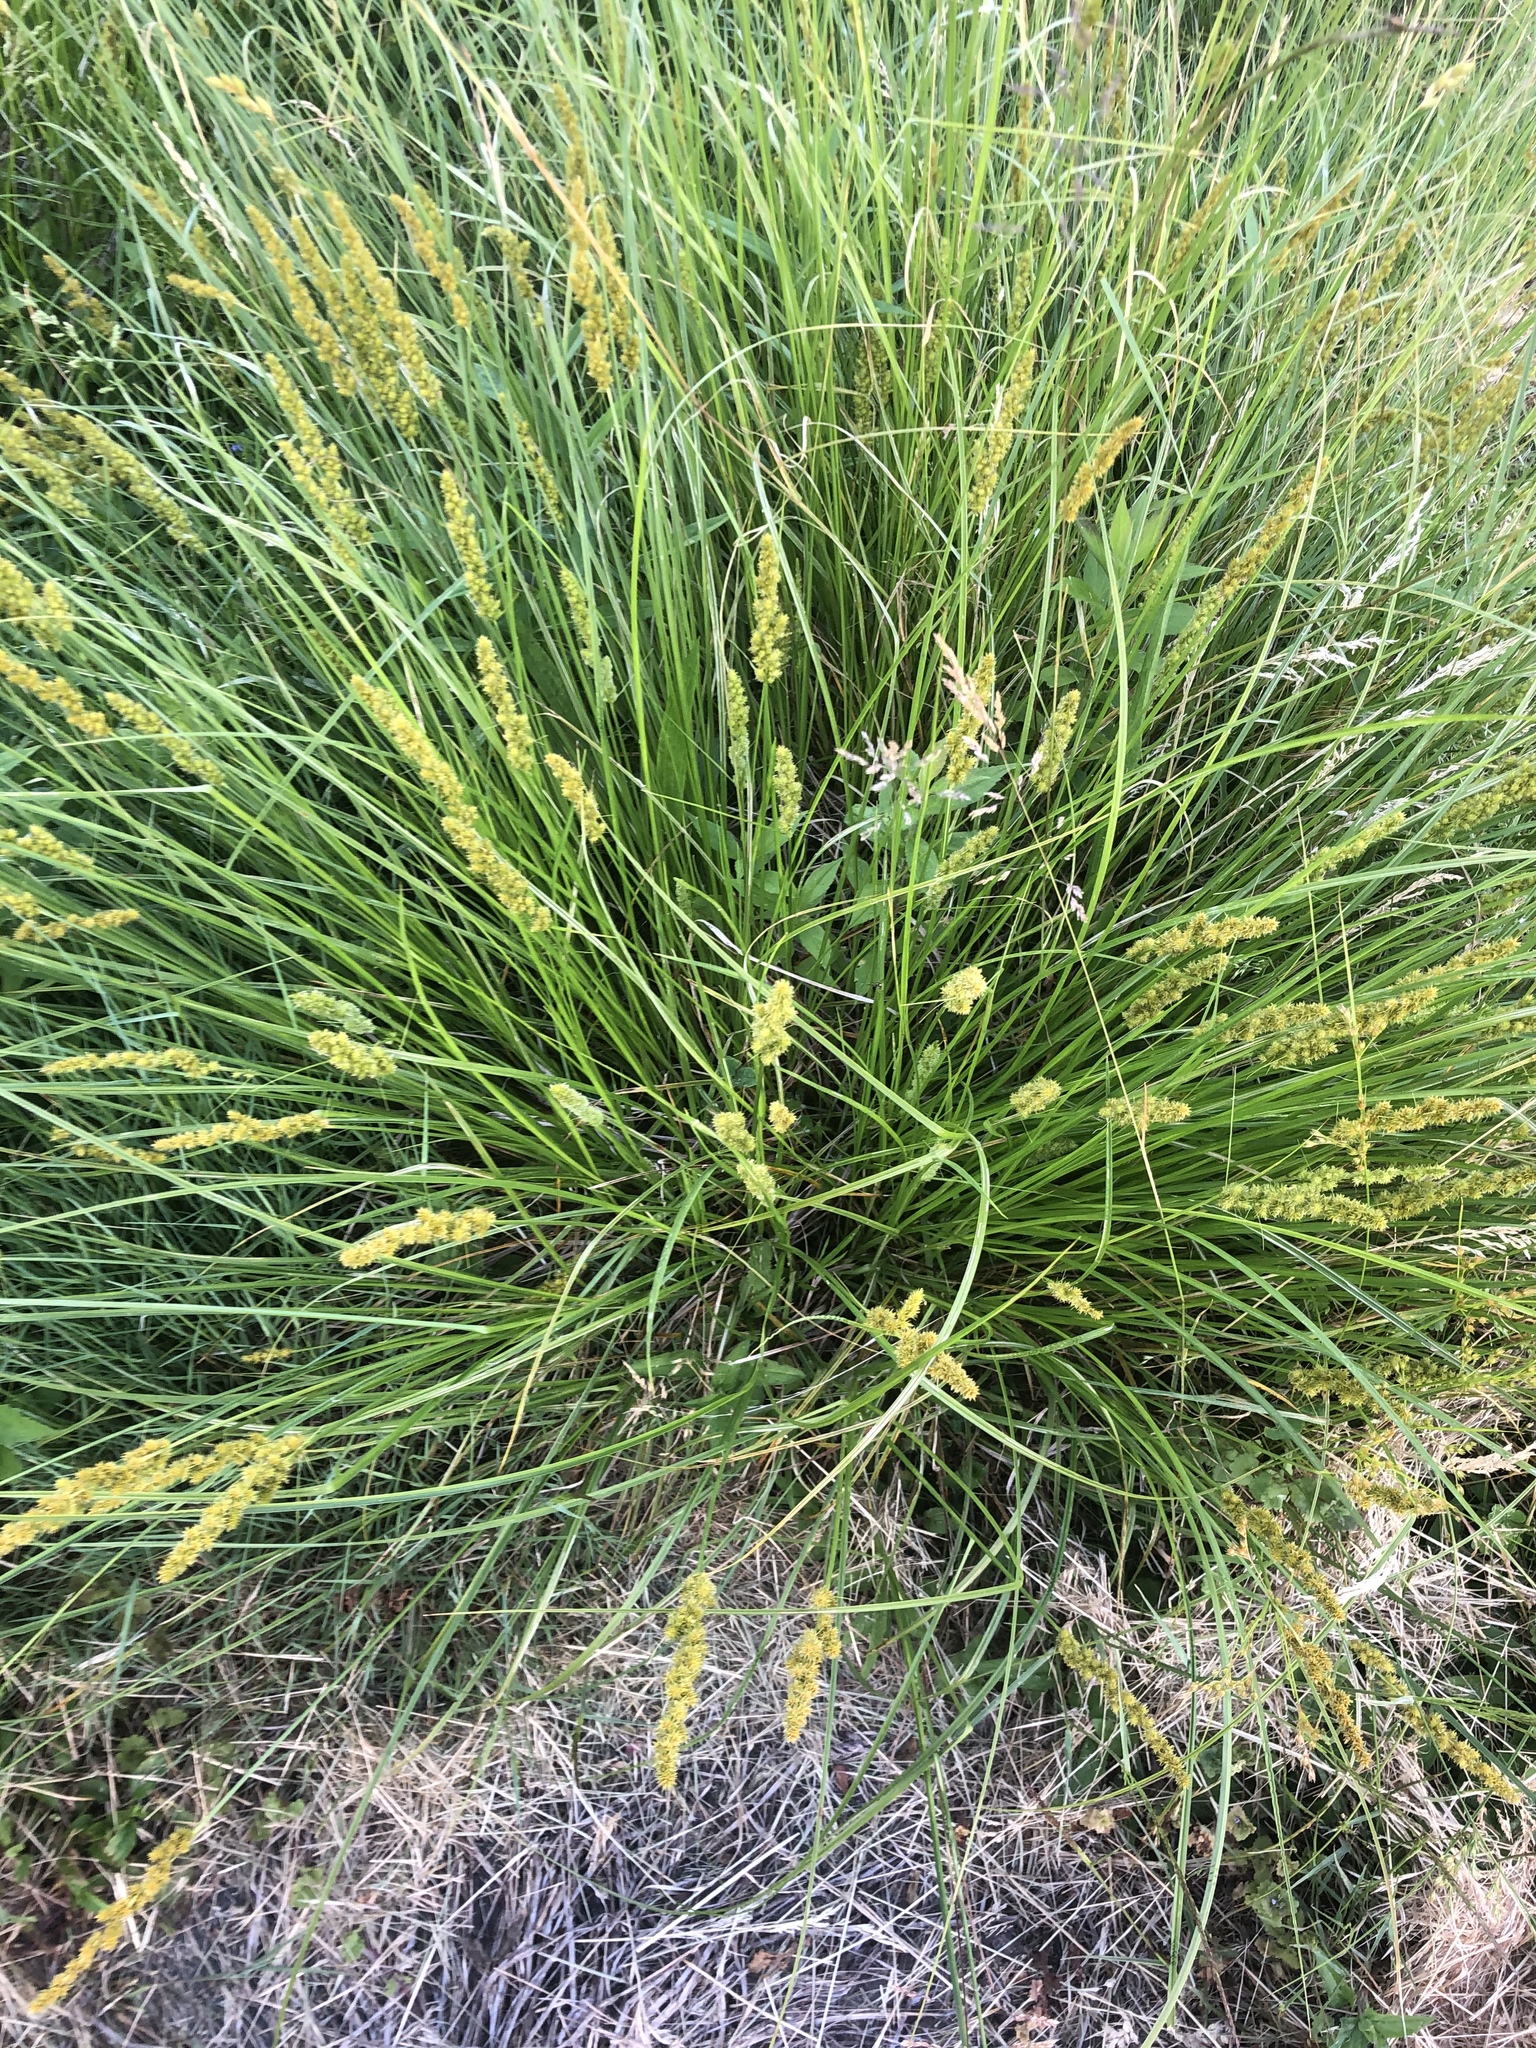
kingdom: Plantae
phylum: Tracheophyta
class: Liliopsida
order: Poales
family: Cyperaceae
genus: Carex
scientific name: Carex vulpinoidea
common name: American fox-sedge
